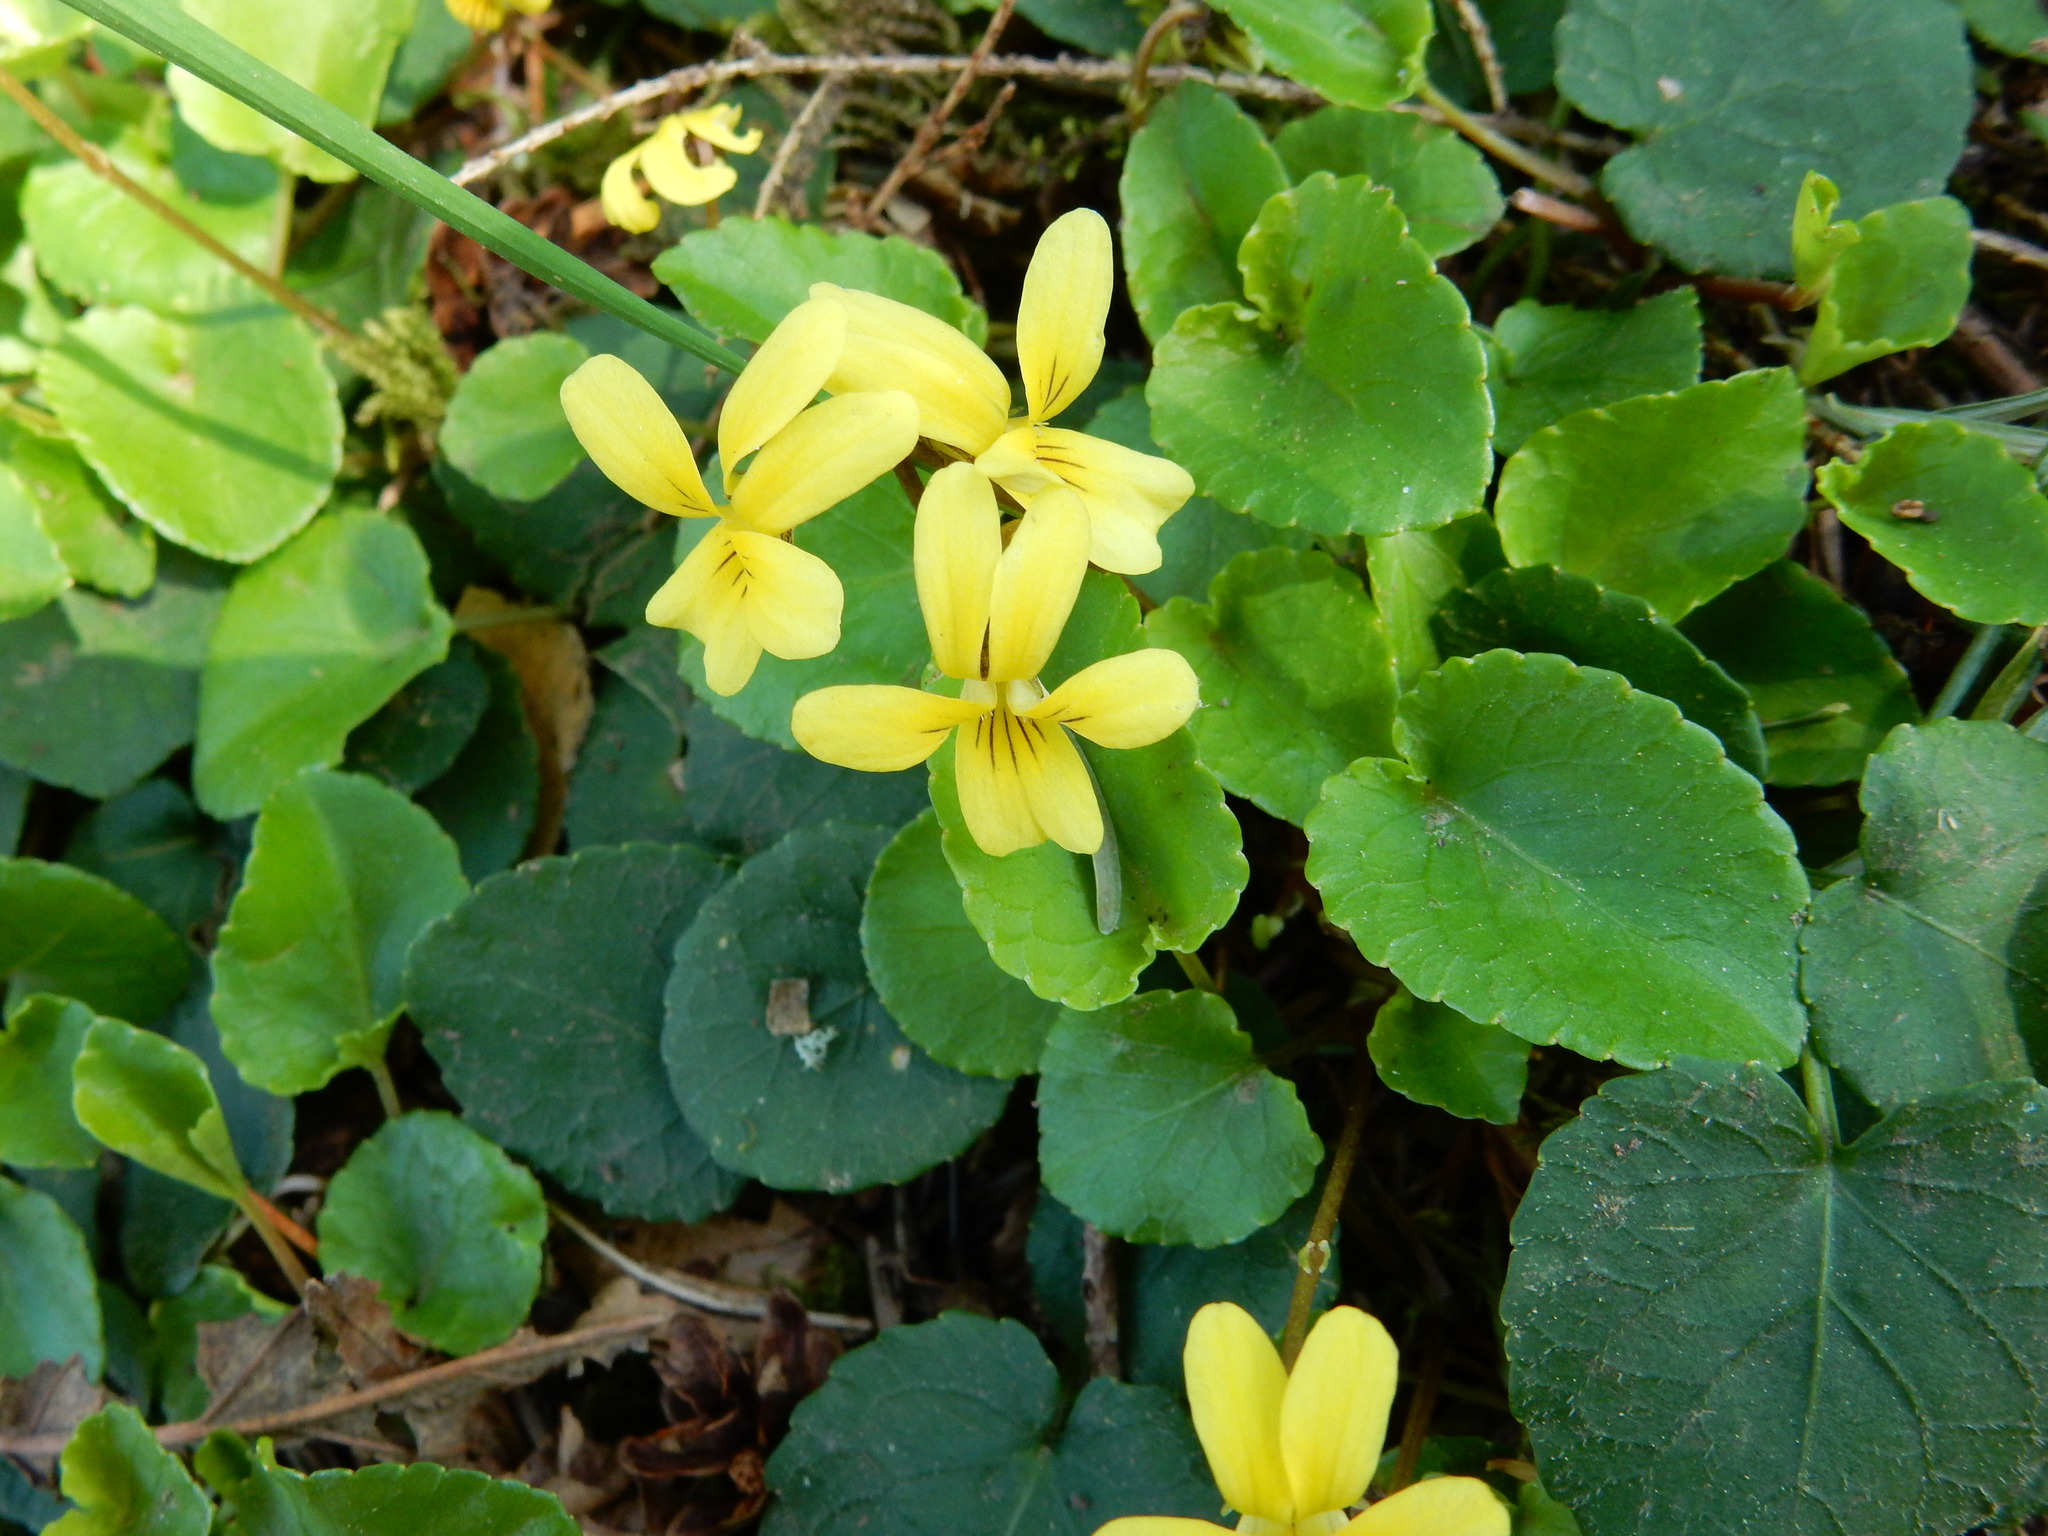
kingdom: Plantae
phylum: Tracheophyta
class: Magnoliopsida
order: Malpighiales
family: Violaceae
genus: Viola
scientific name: Viola sempervirens
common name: Evergreen violet
